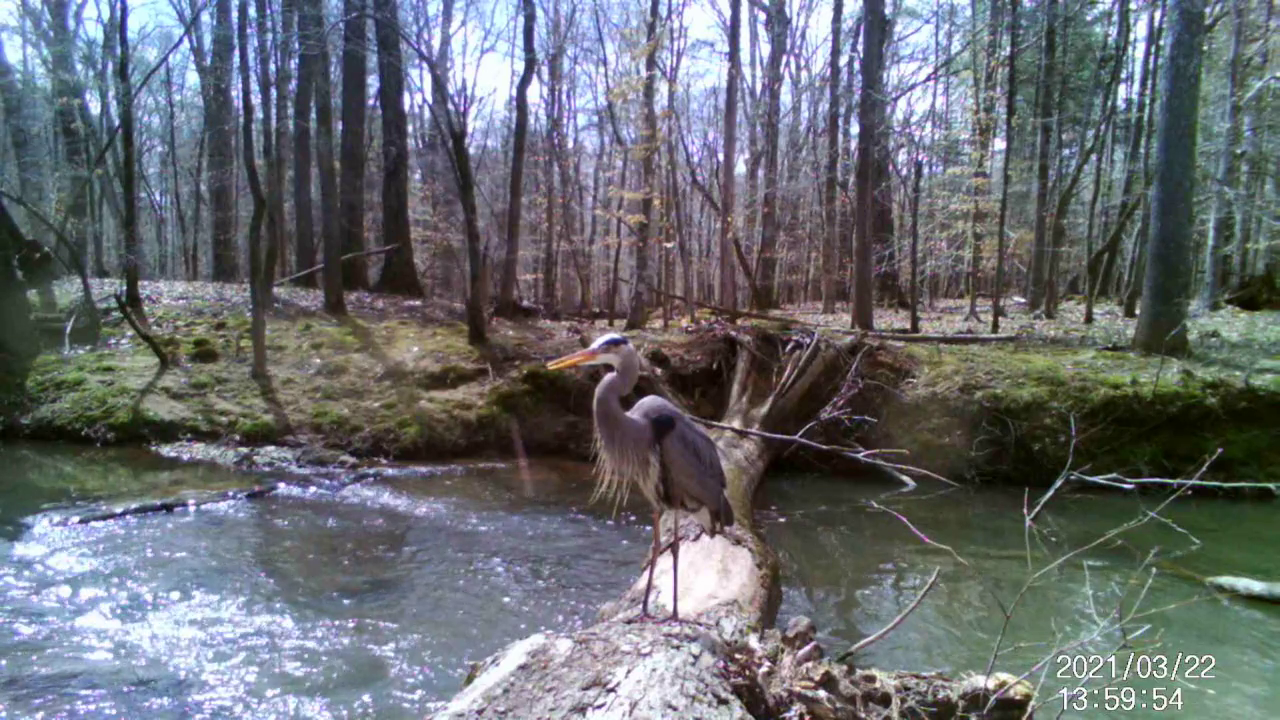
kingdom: Animalia
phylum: Chordata
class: Aves
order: Pelecaniformes
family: Ardeidae
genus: Ardea
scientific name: Ardea herodias
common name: Great blue heron
